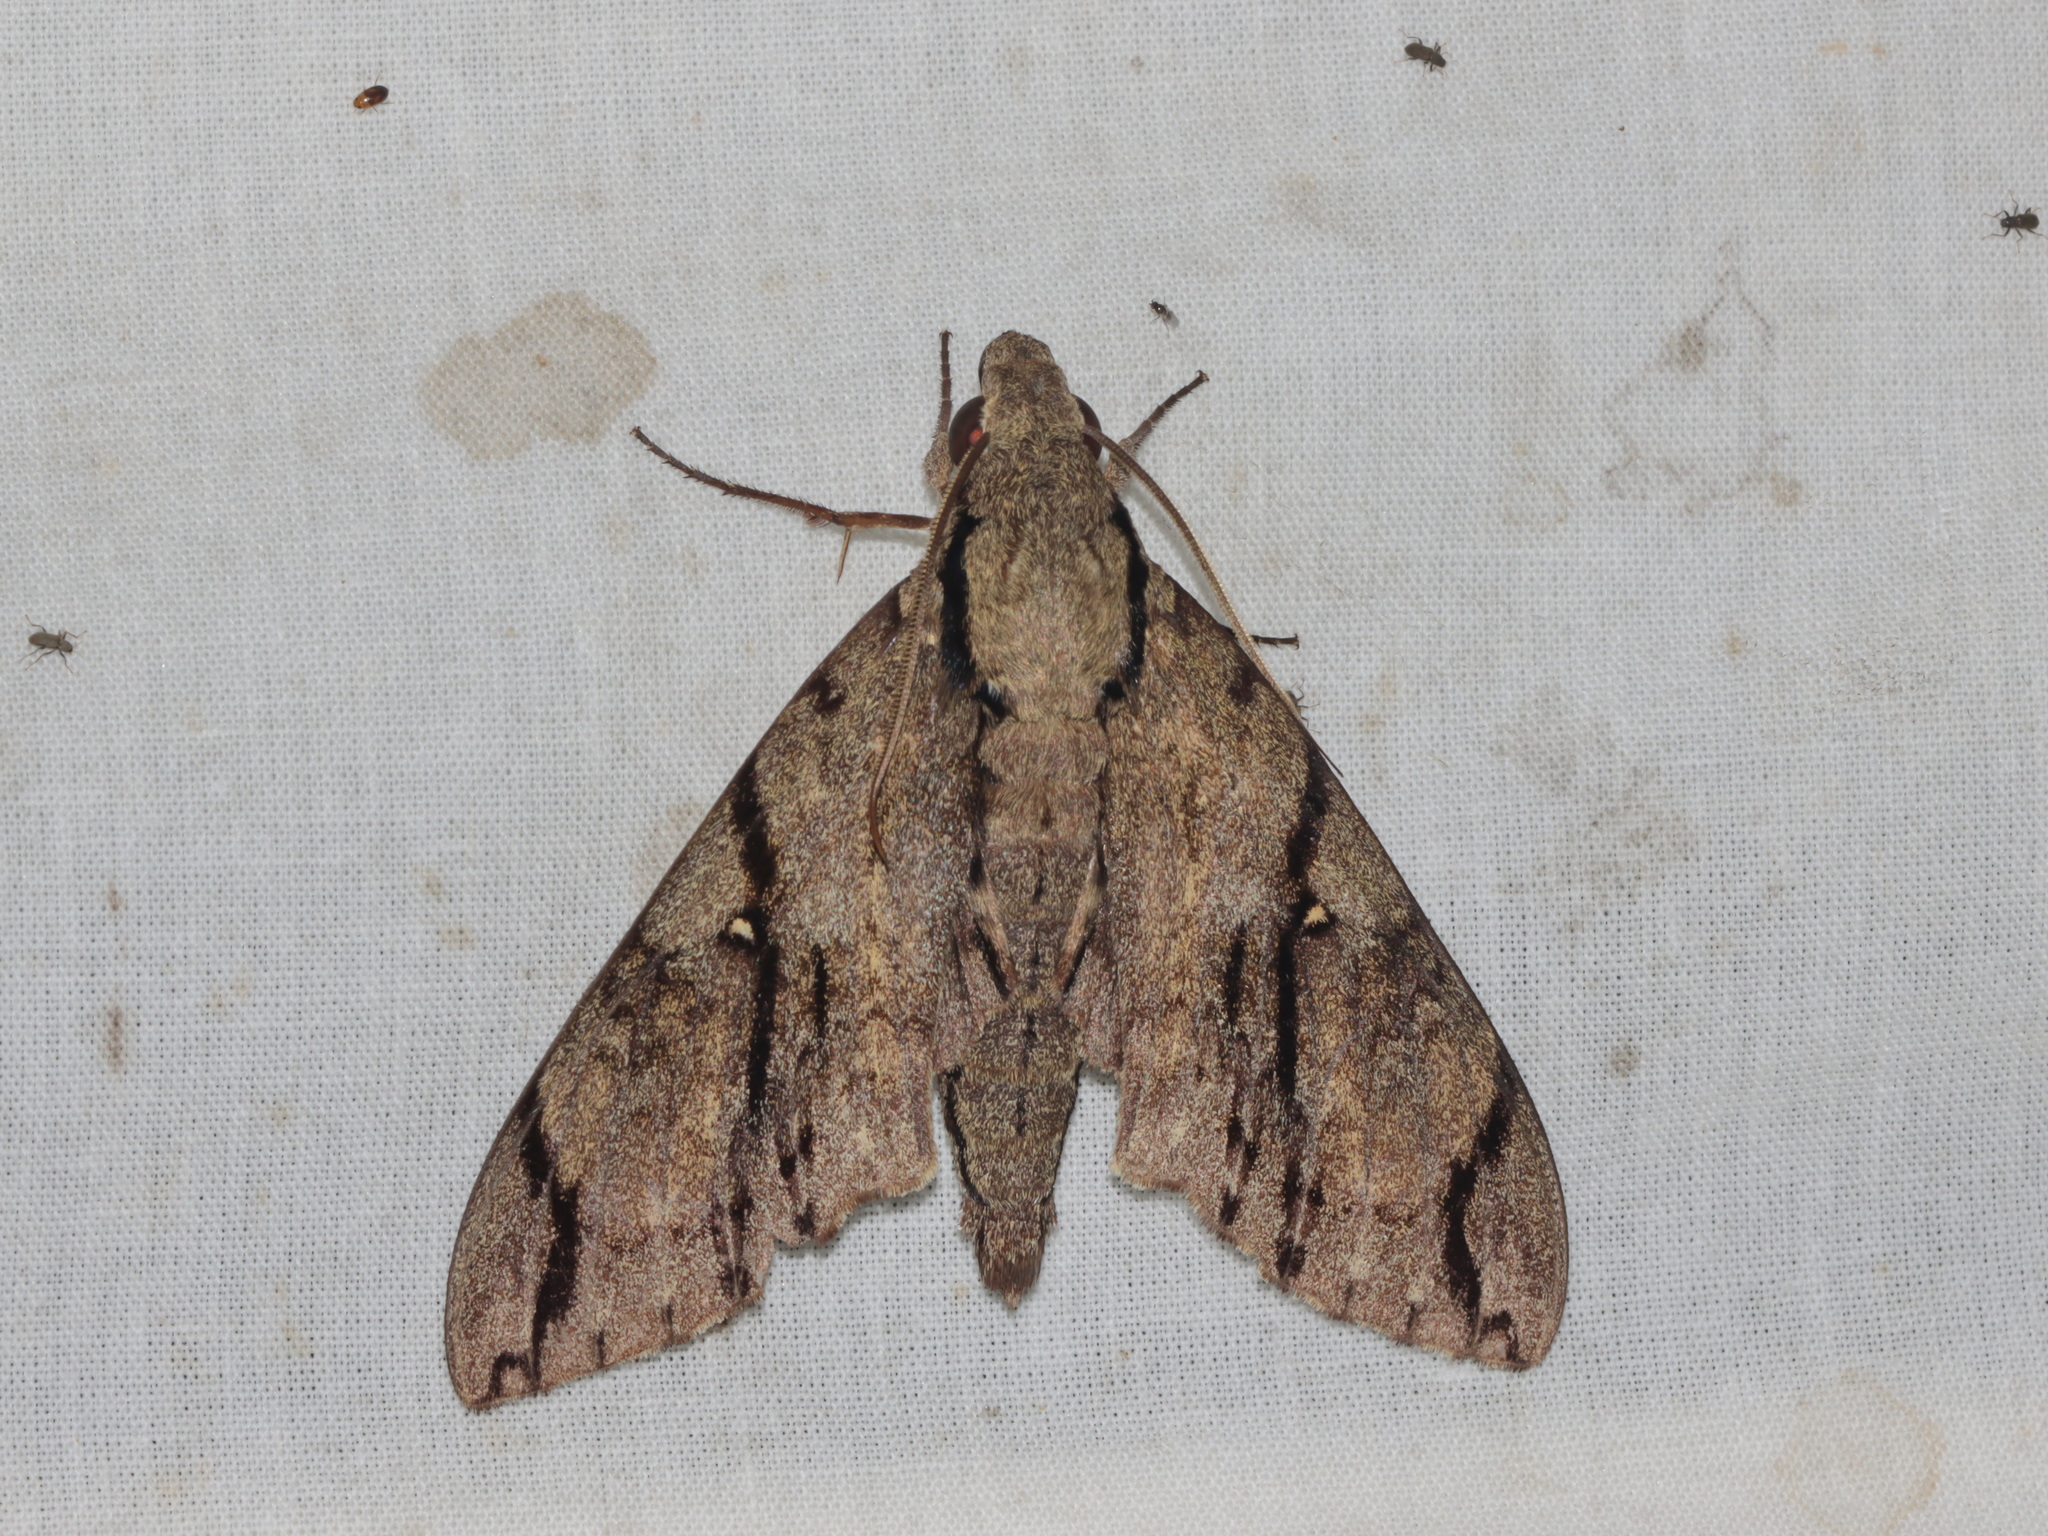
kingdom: Animalia
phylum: Arthropoda
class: Insecta
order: Lepidoptera
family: Sphingidae
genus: Cerberonoton
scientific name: Cerberonoton rubescens
